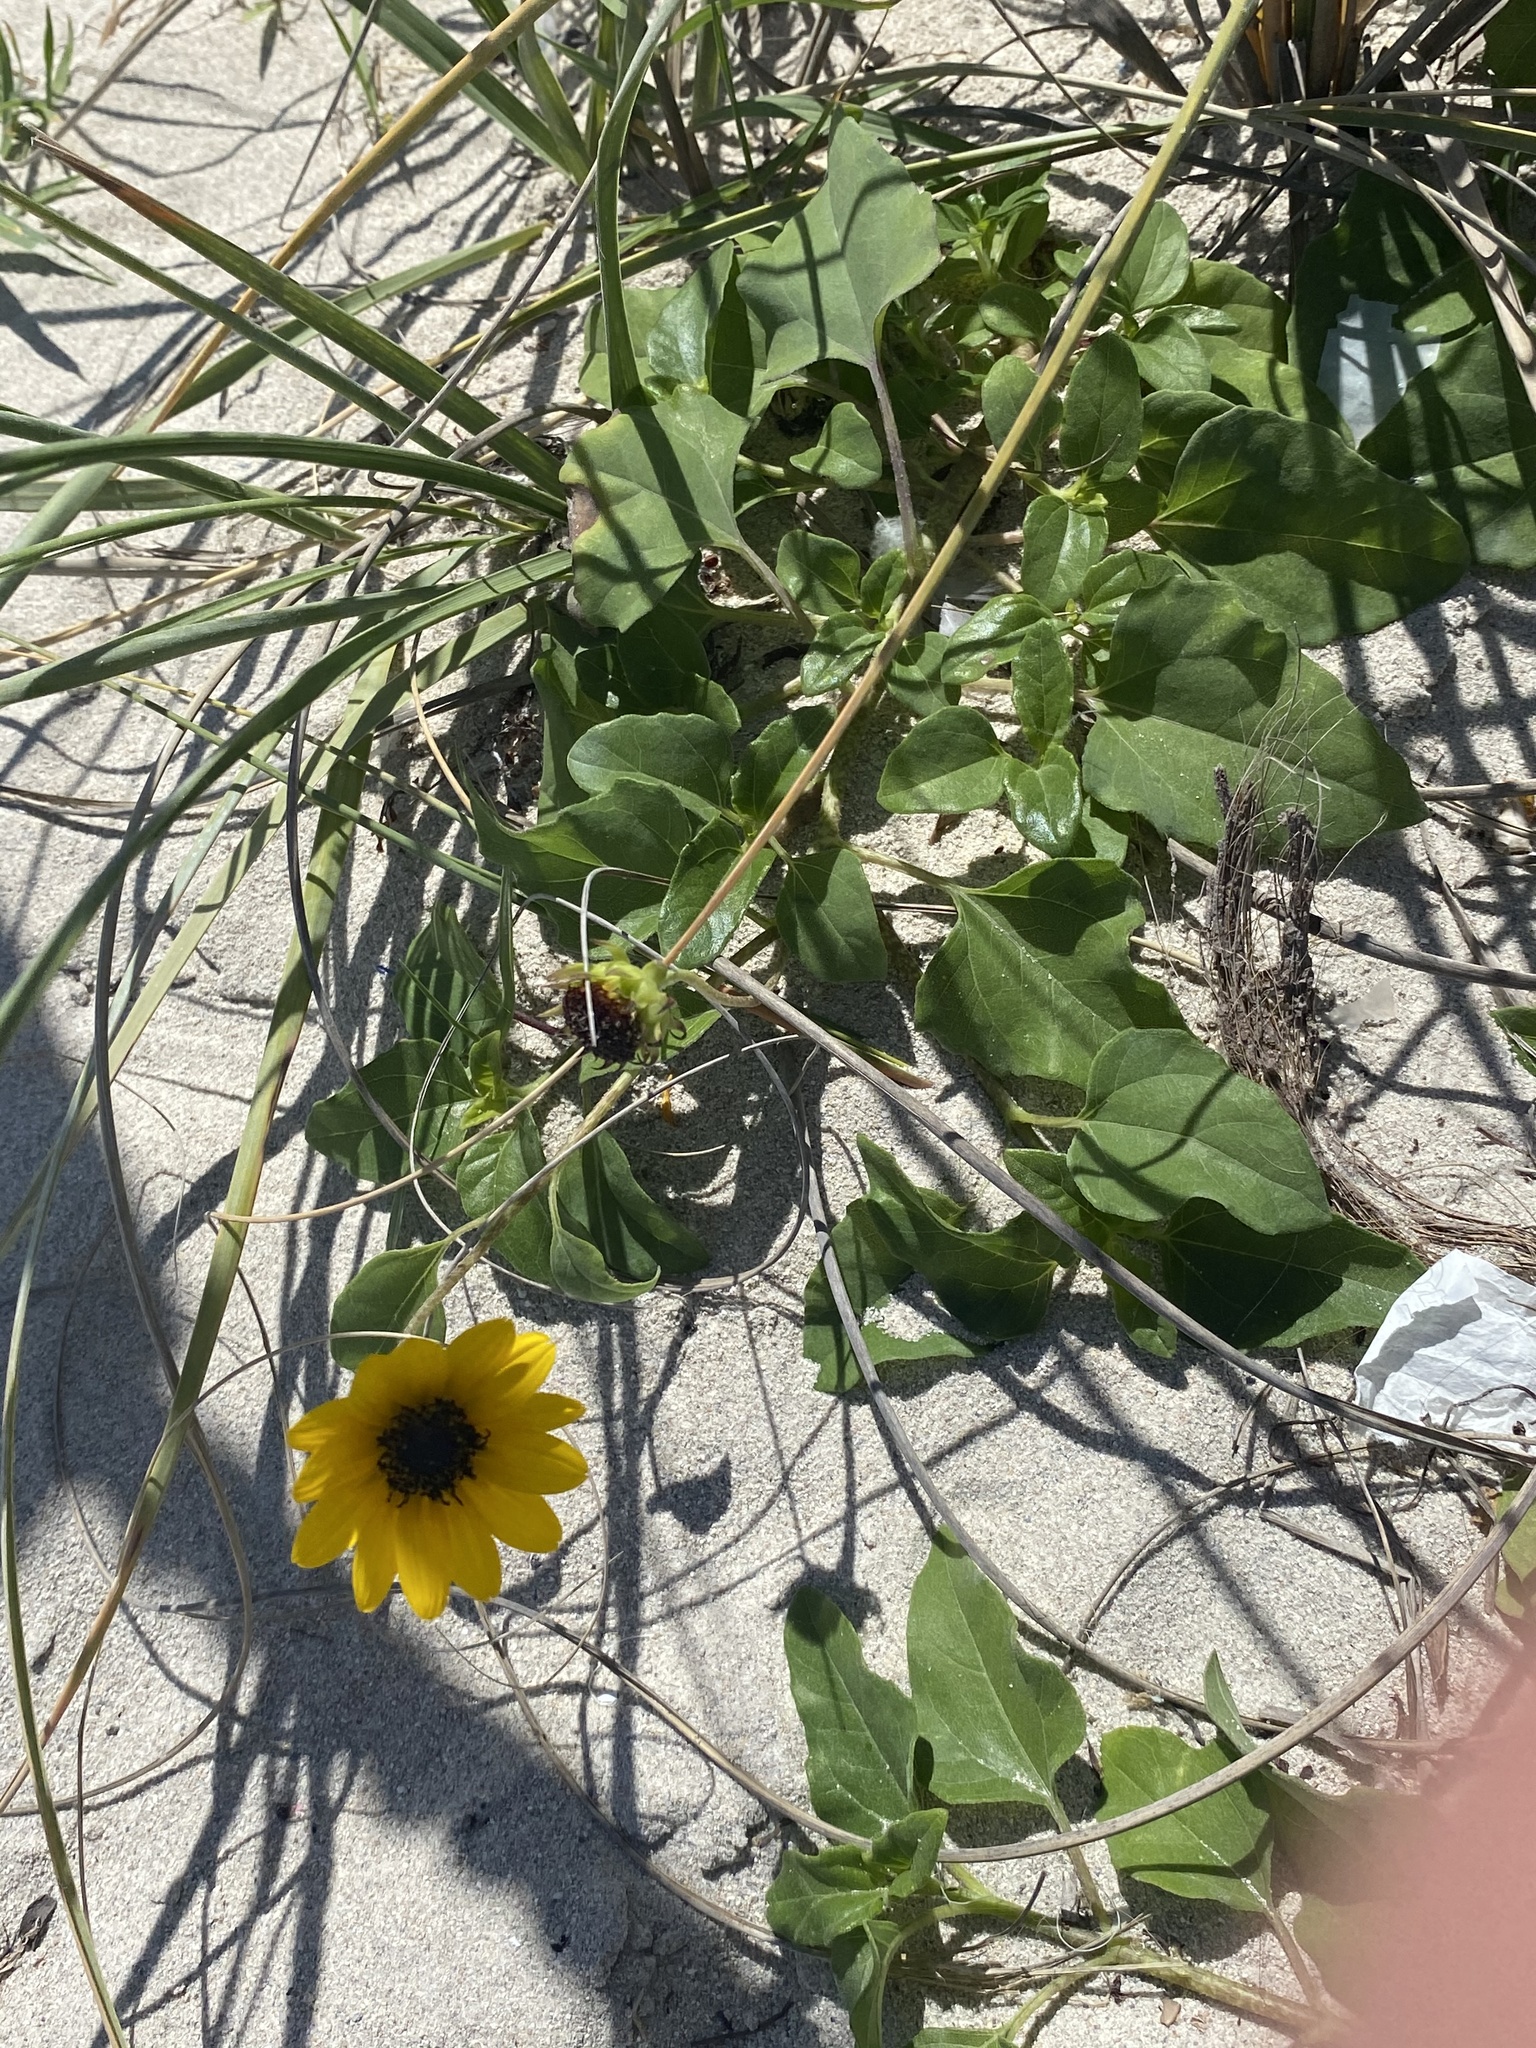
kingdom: Plantae
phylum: Tracheophyta
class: Magnoliopsida
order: Asterales
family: Asteraceae
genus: Helianthus
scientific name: Helianthus debilis
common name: Weak sunflower
